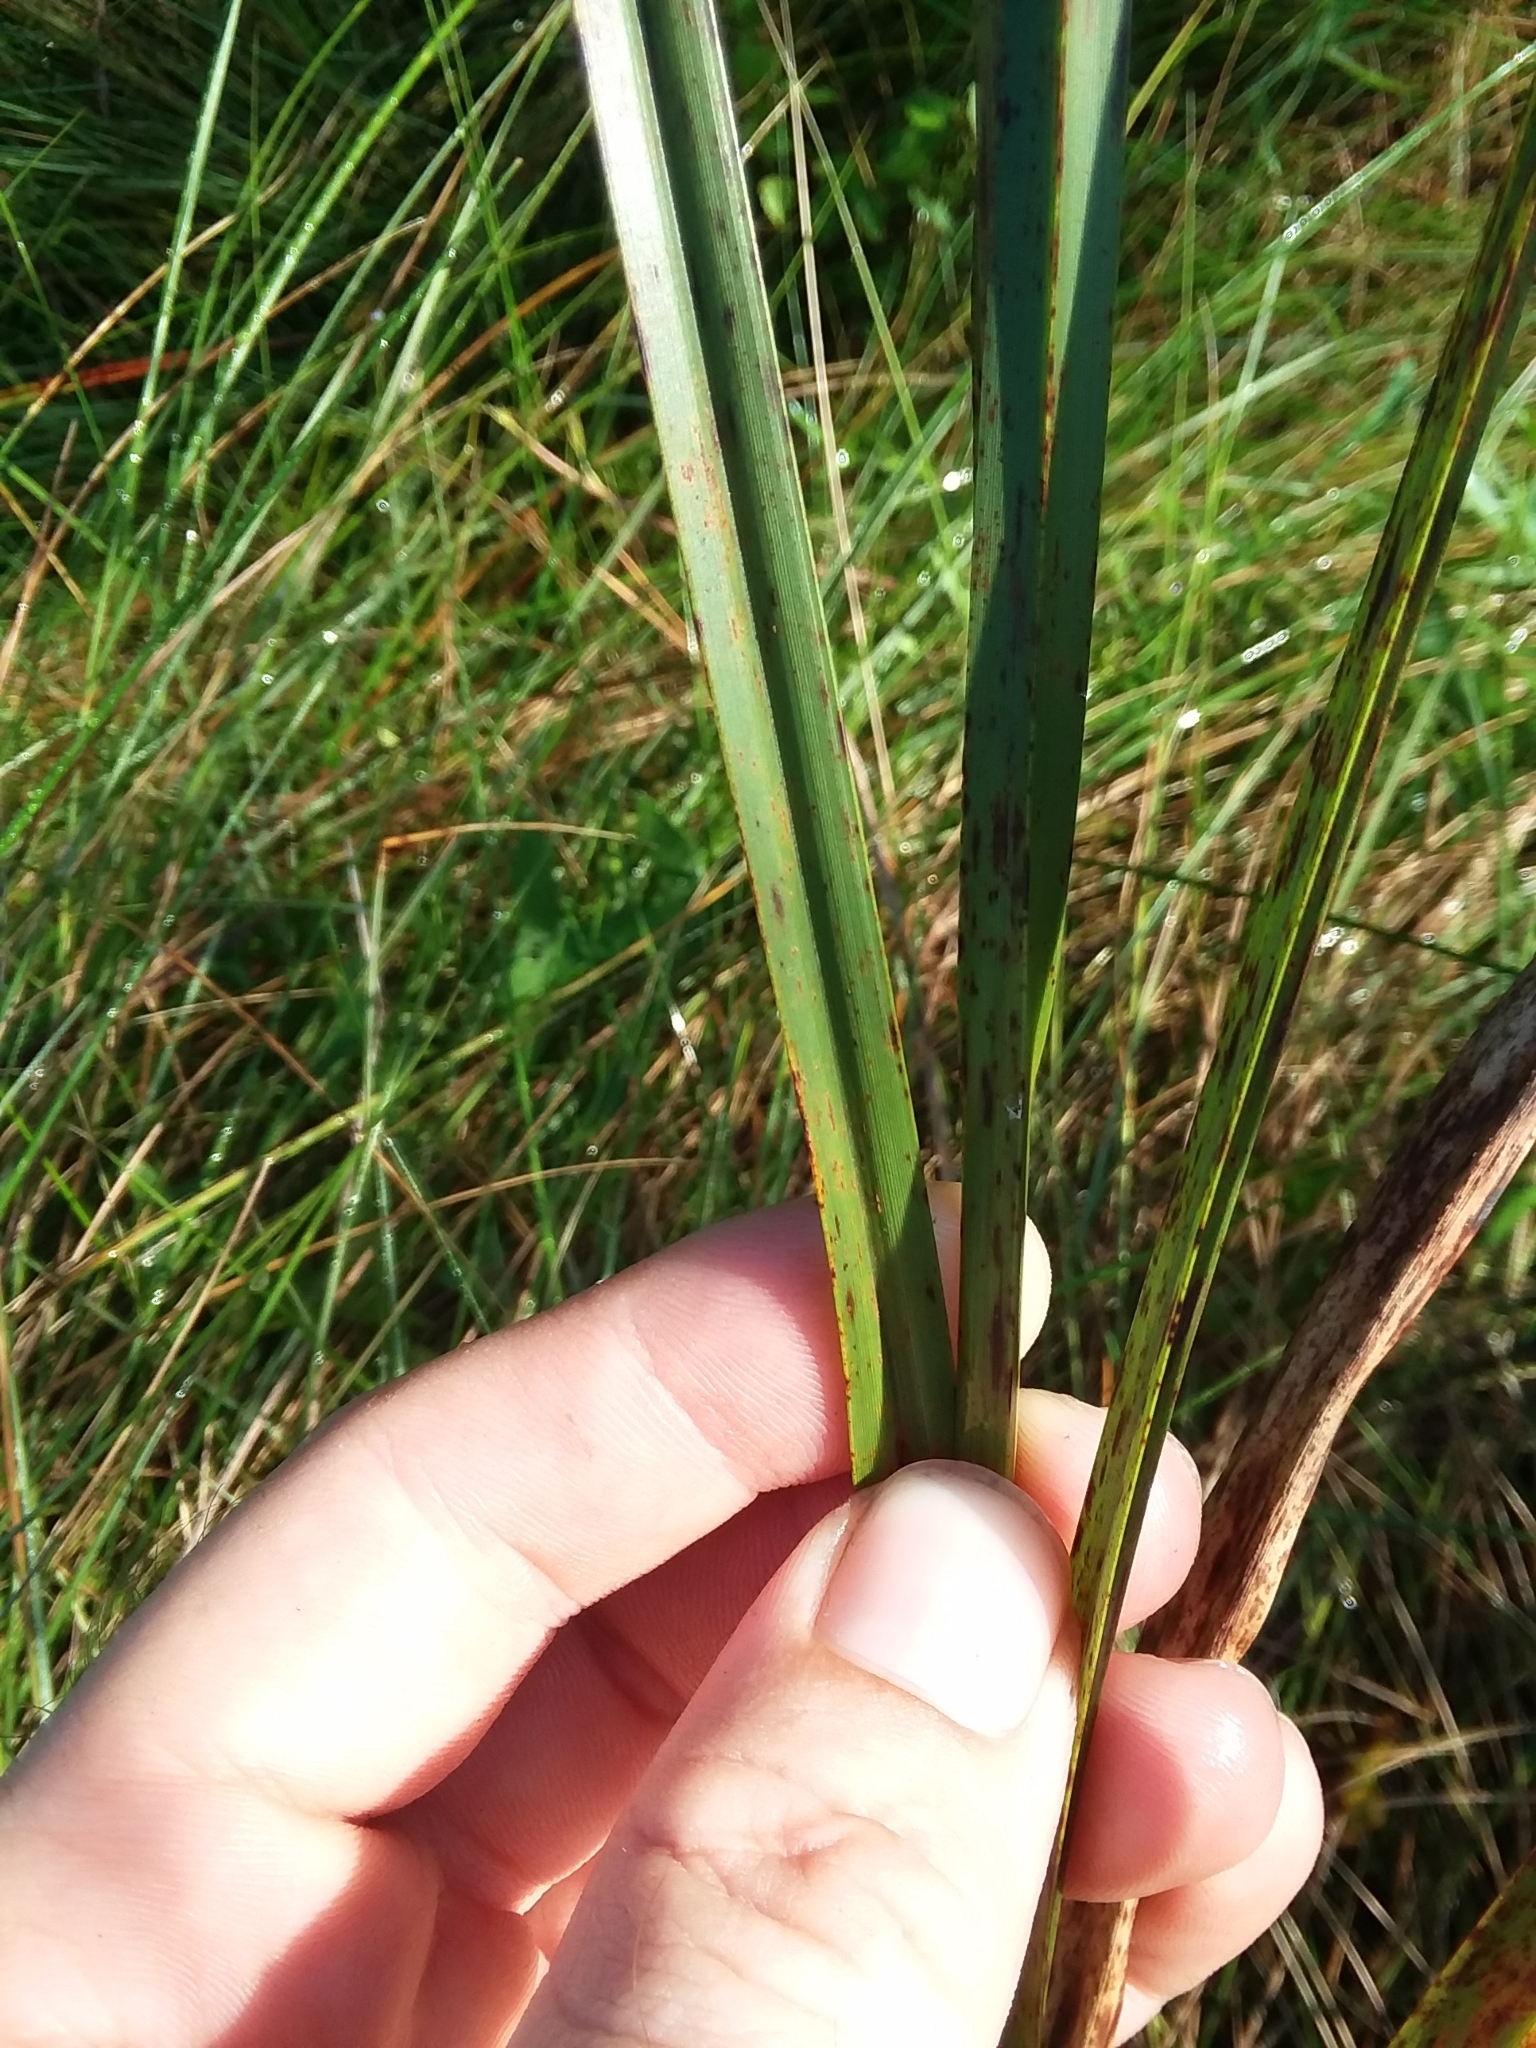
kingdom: Plantae
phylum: Tracheophyta
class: Liliopsida
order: Poales
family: Cyperaceae
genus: Schoenoplectus
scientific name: Schoenoplectus pungens
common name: Sharp club-rush
